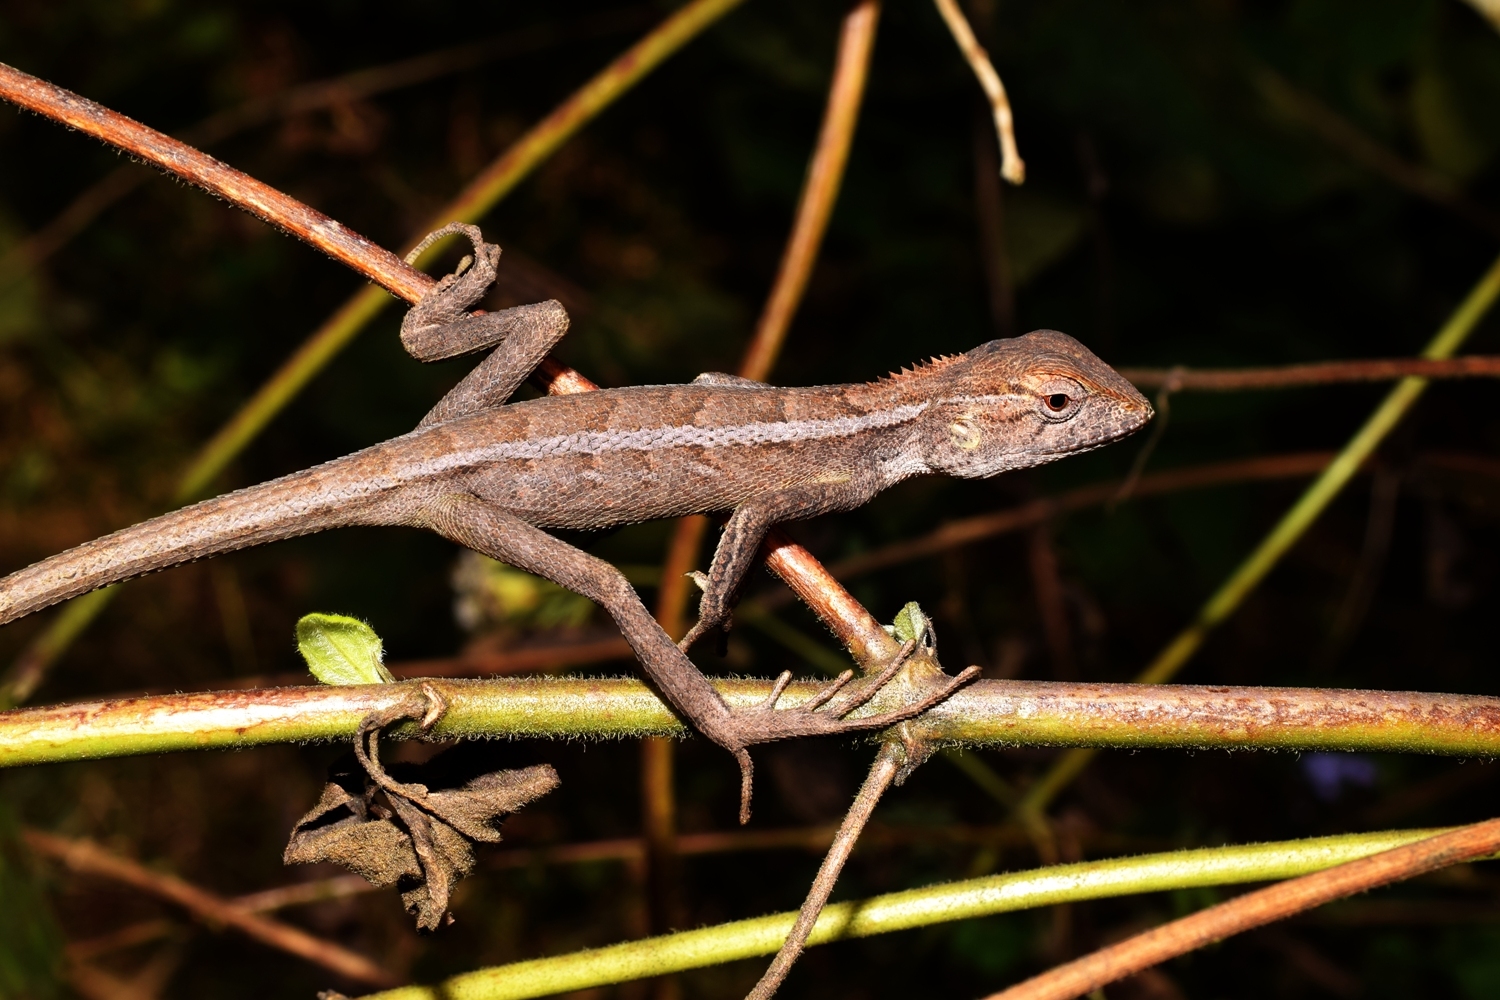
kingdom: Animalia
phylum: Chordata
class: Squamata
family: Agamidae
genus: Calotes
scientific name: Calotes versicolor
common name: Oriental garden lizard
